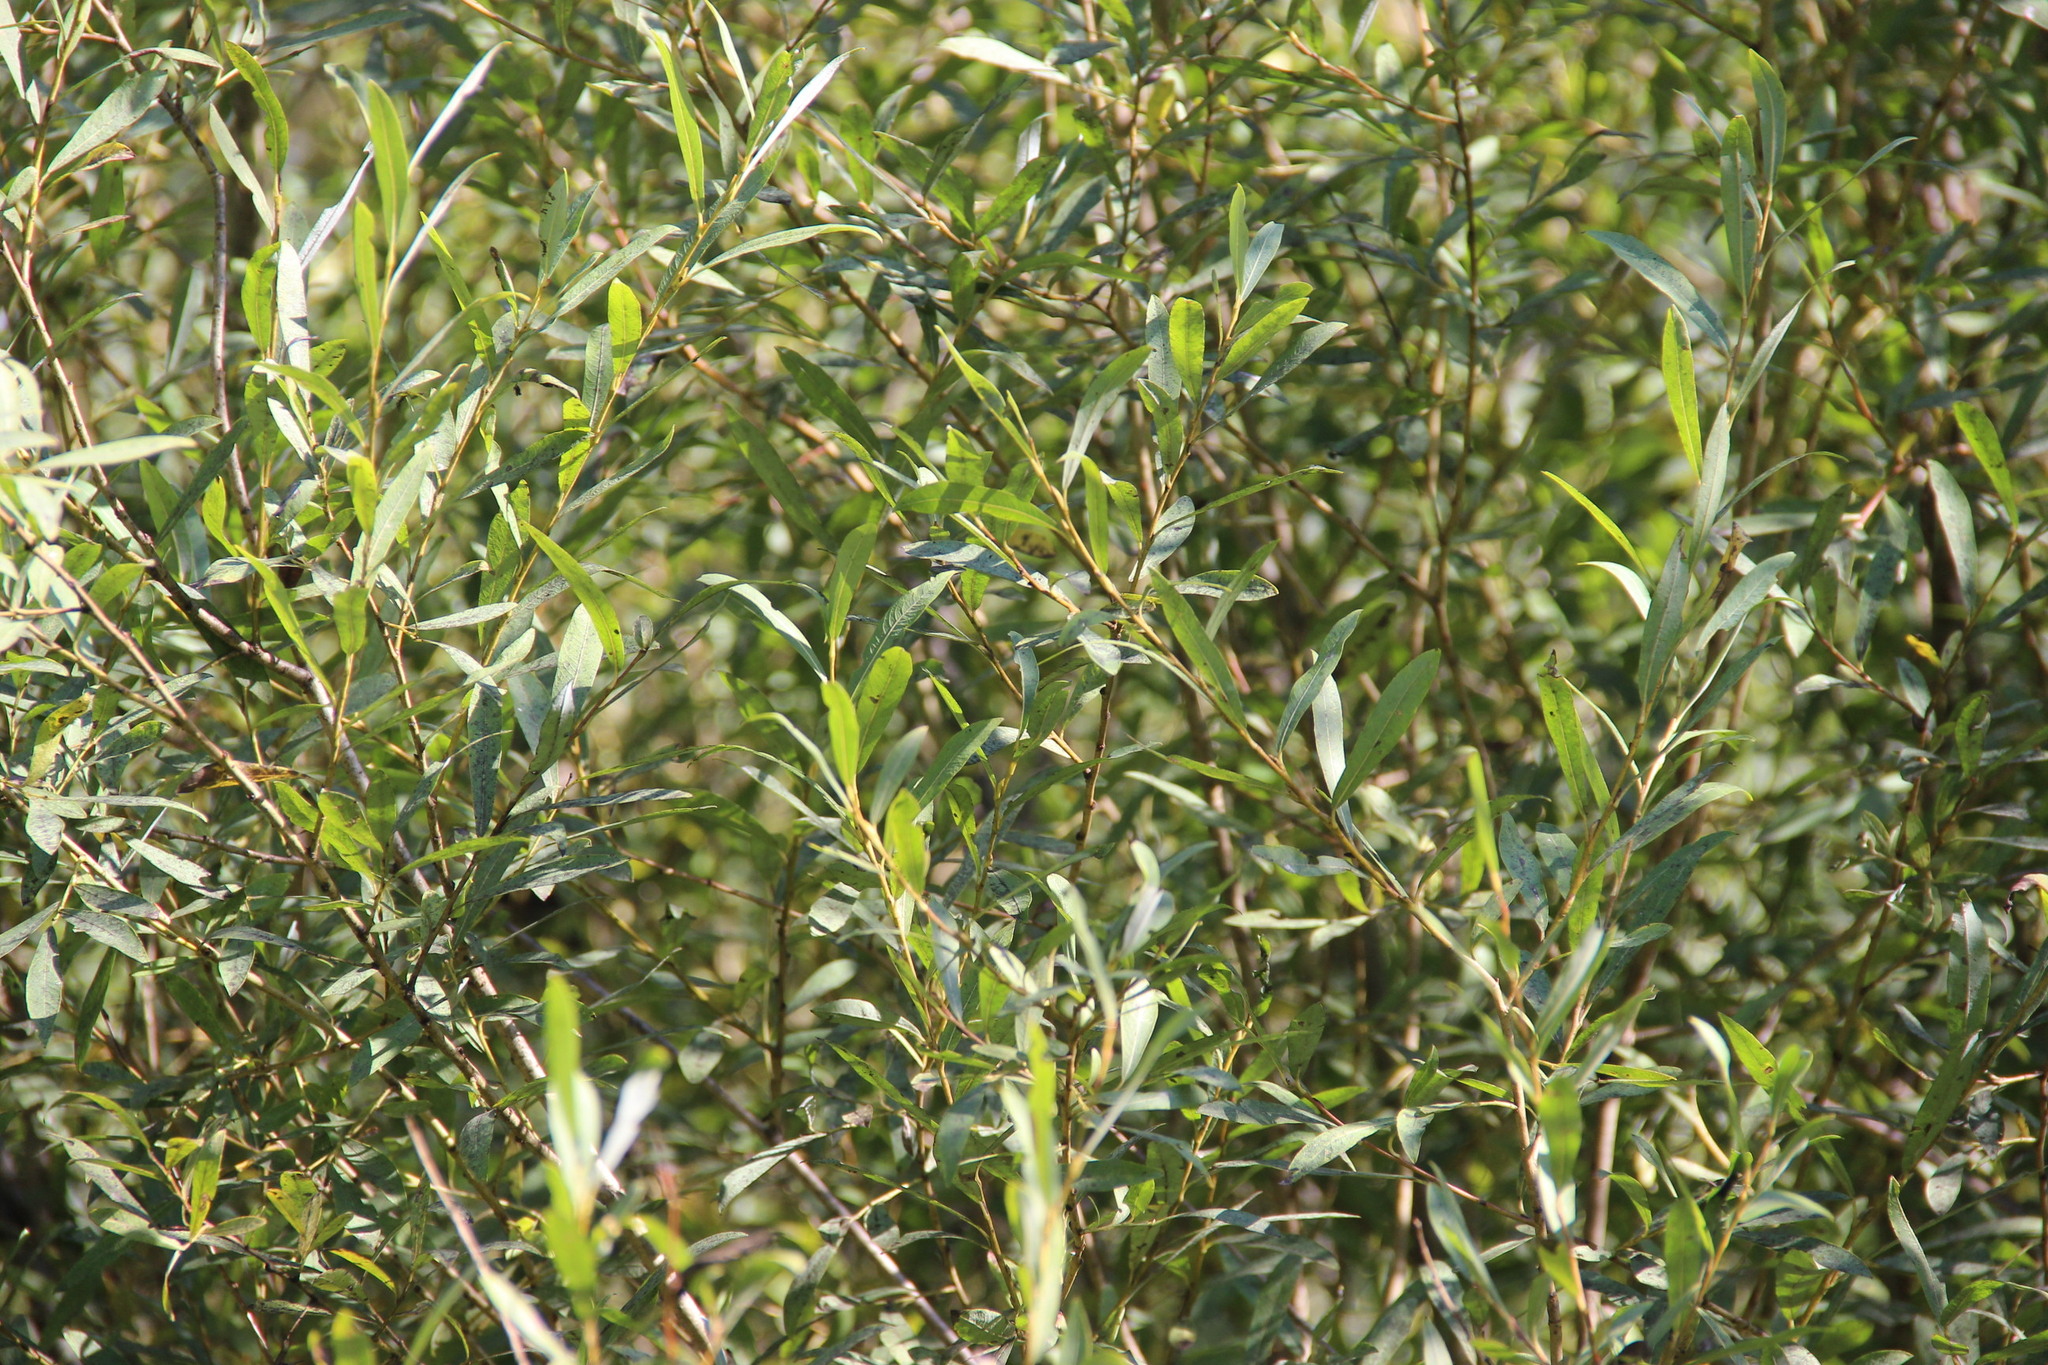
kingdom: Plantae
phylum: Tracheophyta
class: Magnoliopsida
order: Malpighiales
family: Salicaceae
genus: Salix
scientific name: Salix vinogradovii
